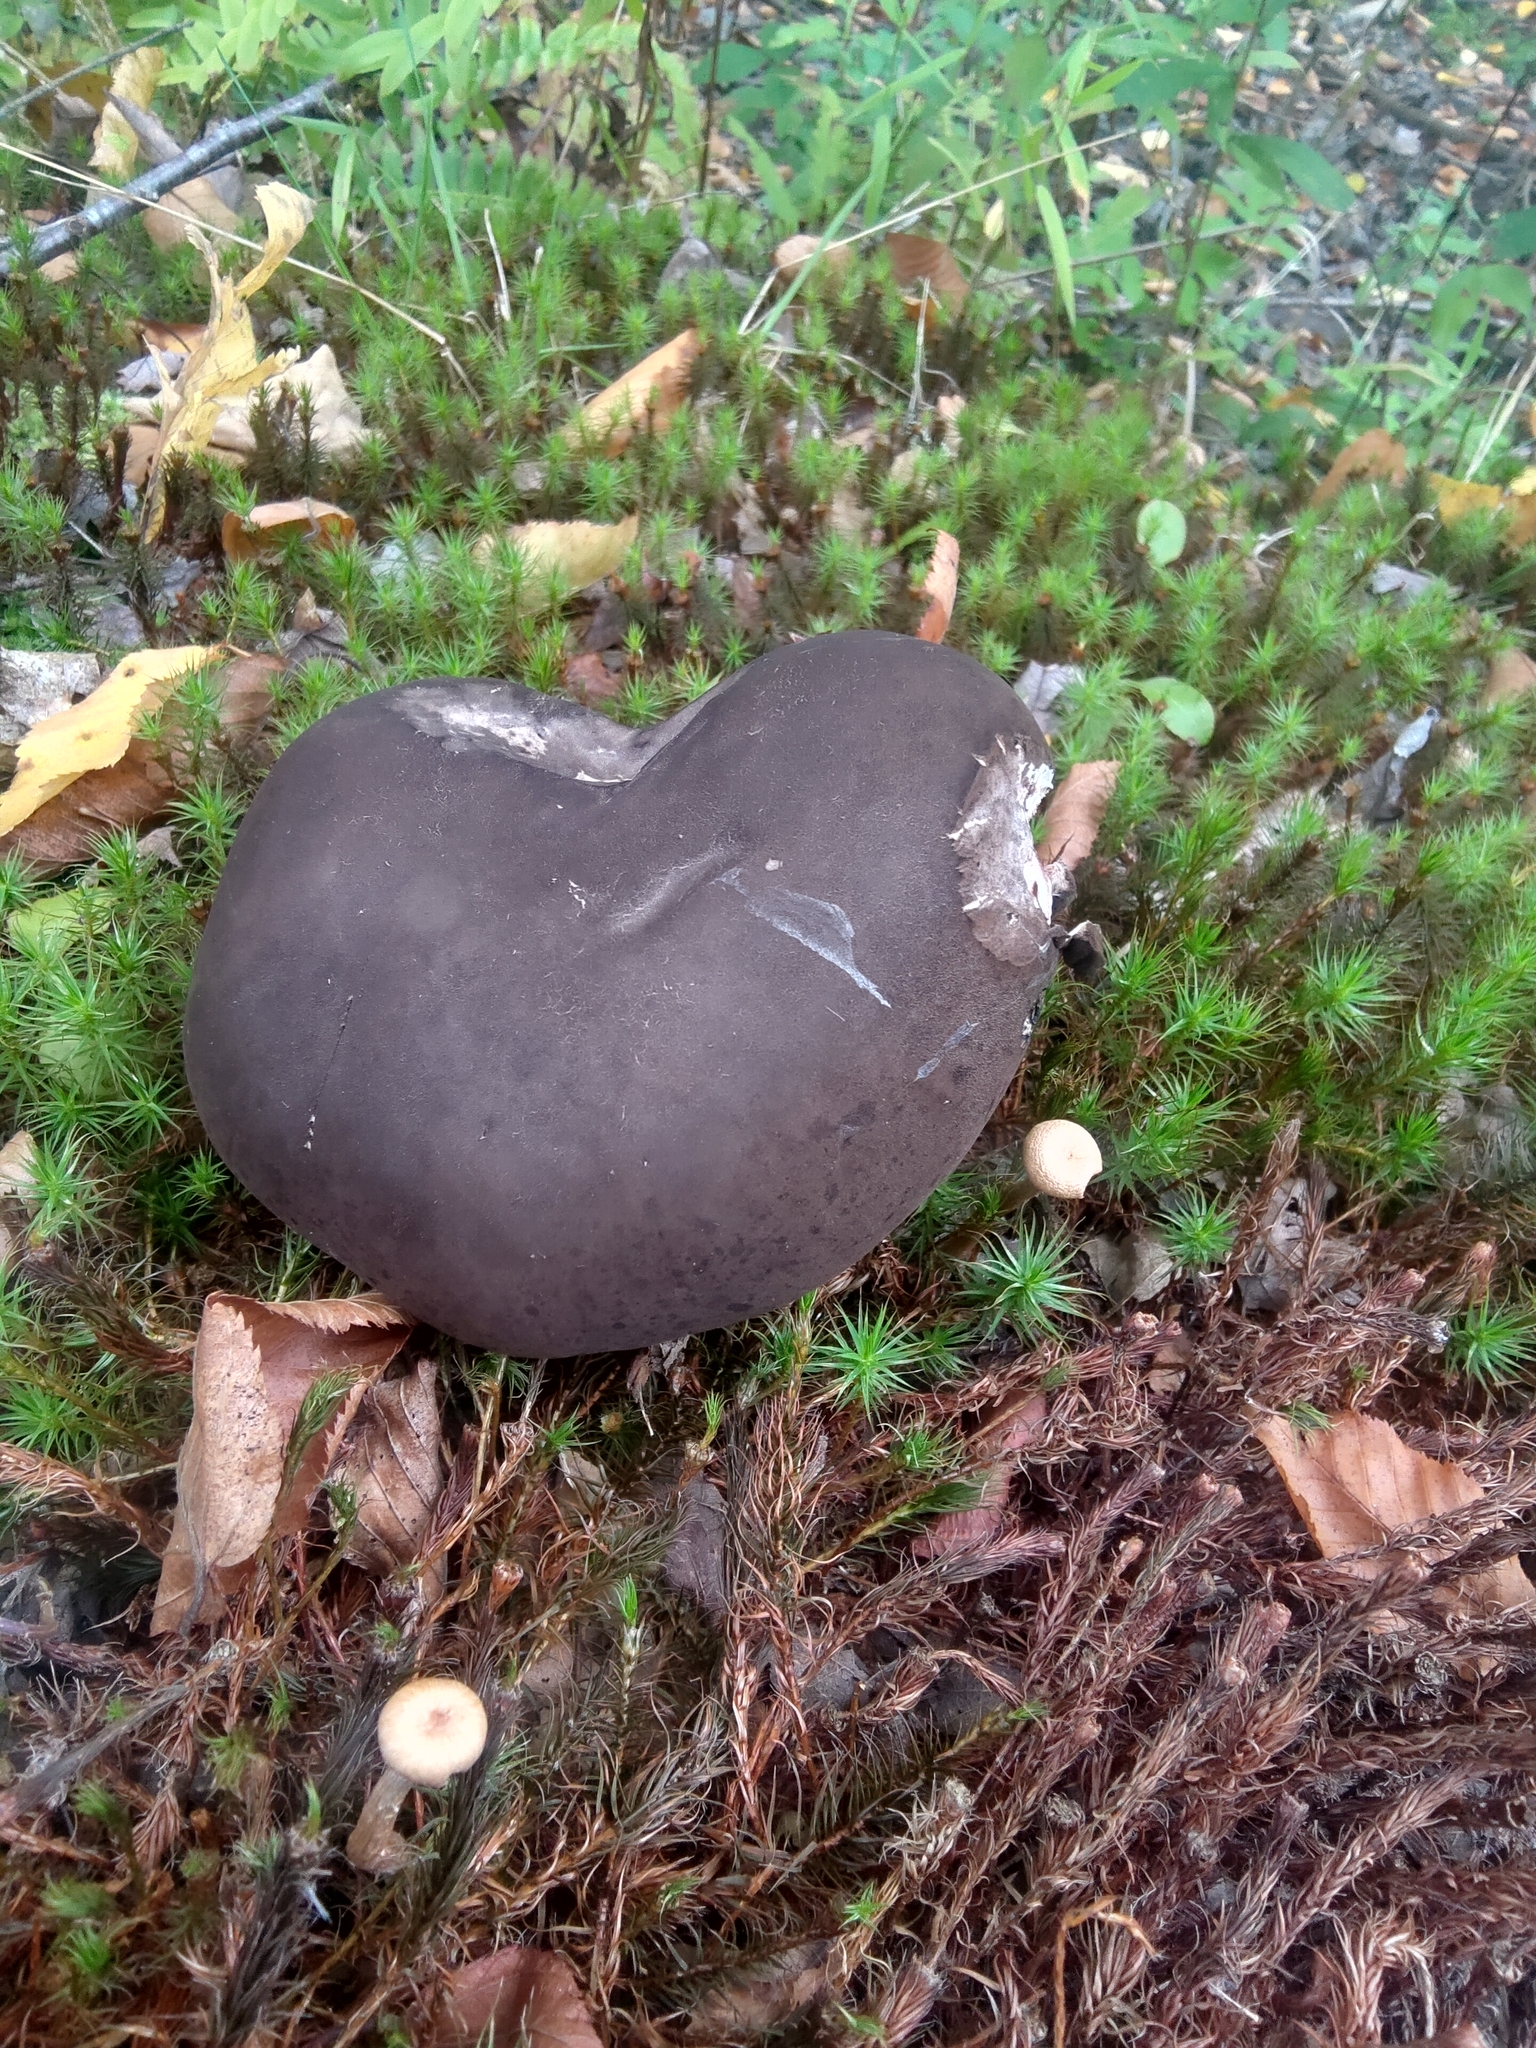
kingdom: Fungi
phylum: Basidiomycota
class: Agaricomycetes
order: Boletales
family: Boletaceae
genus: Tylopilus
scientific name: Tylopilus alboater
